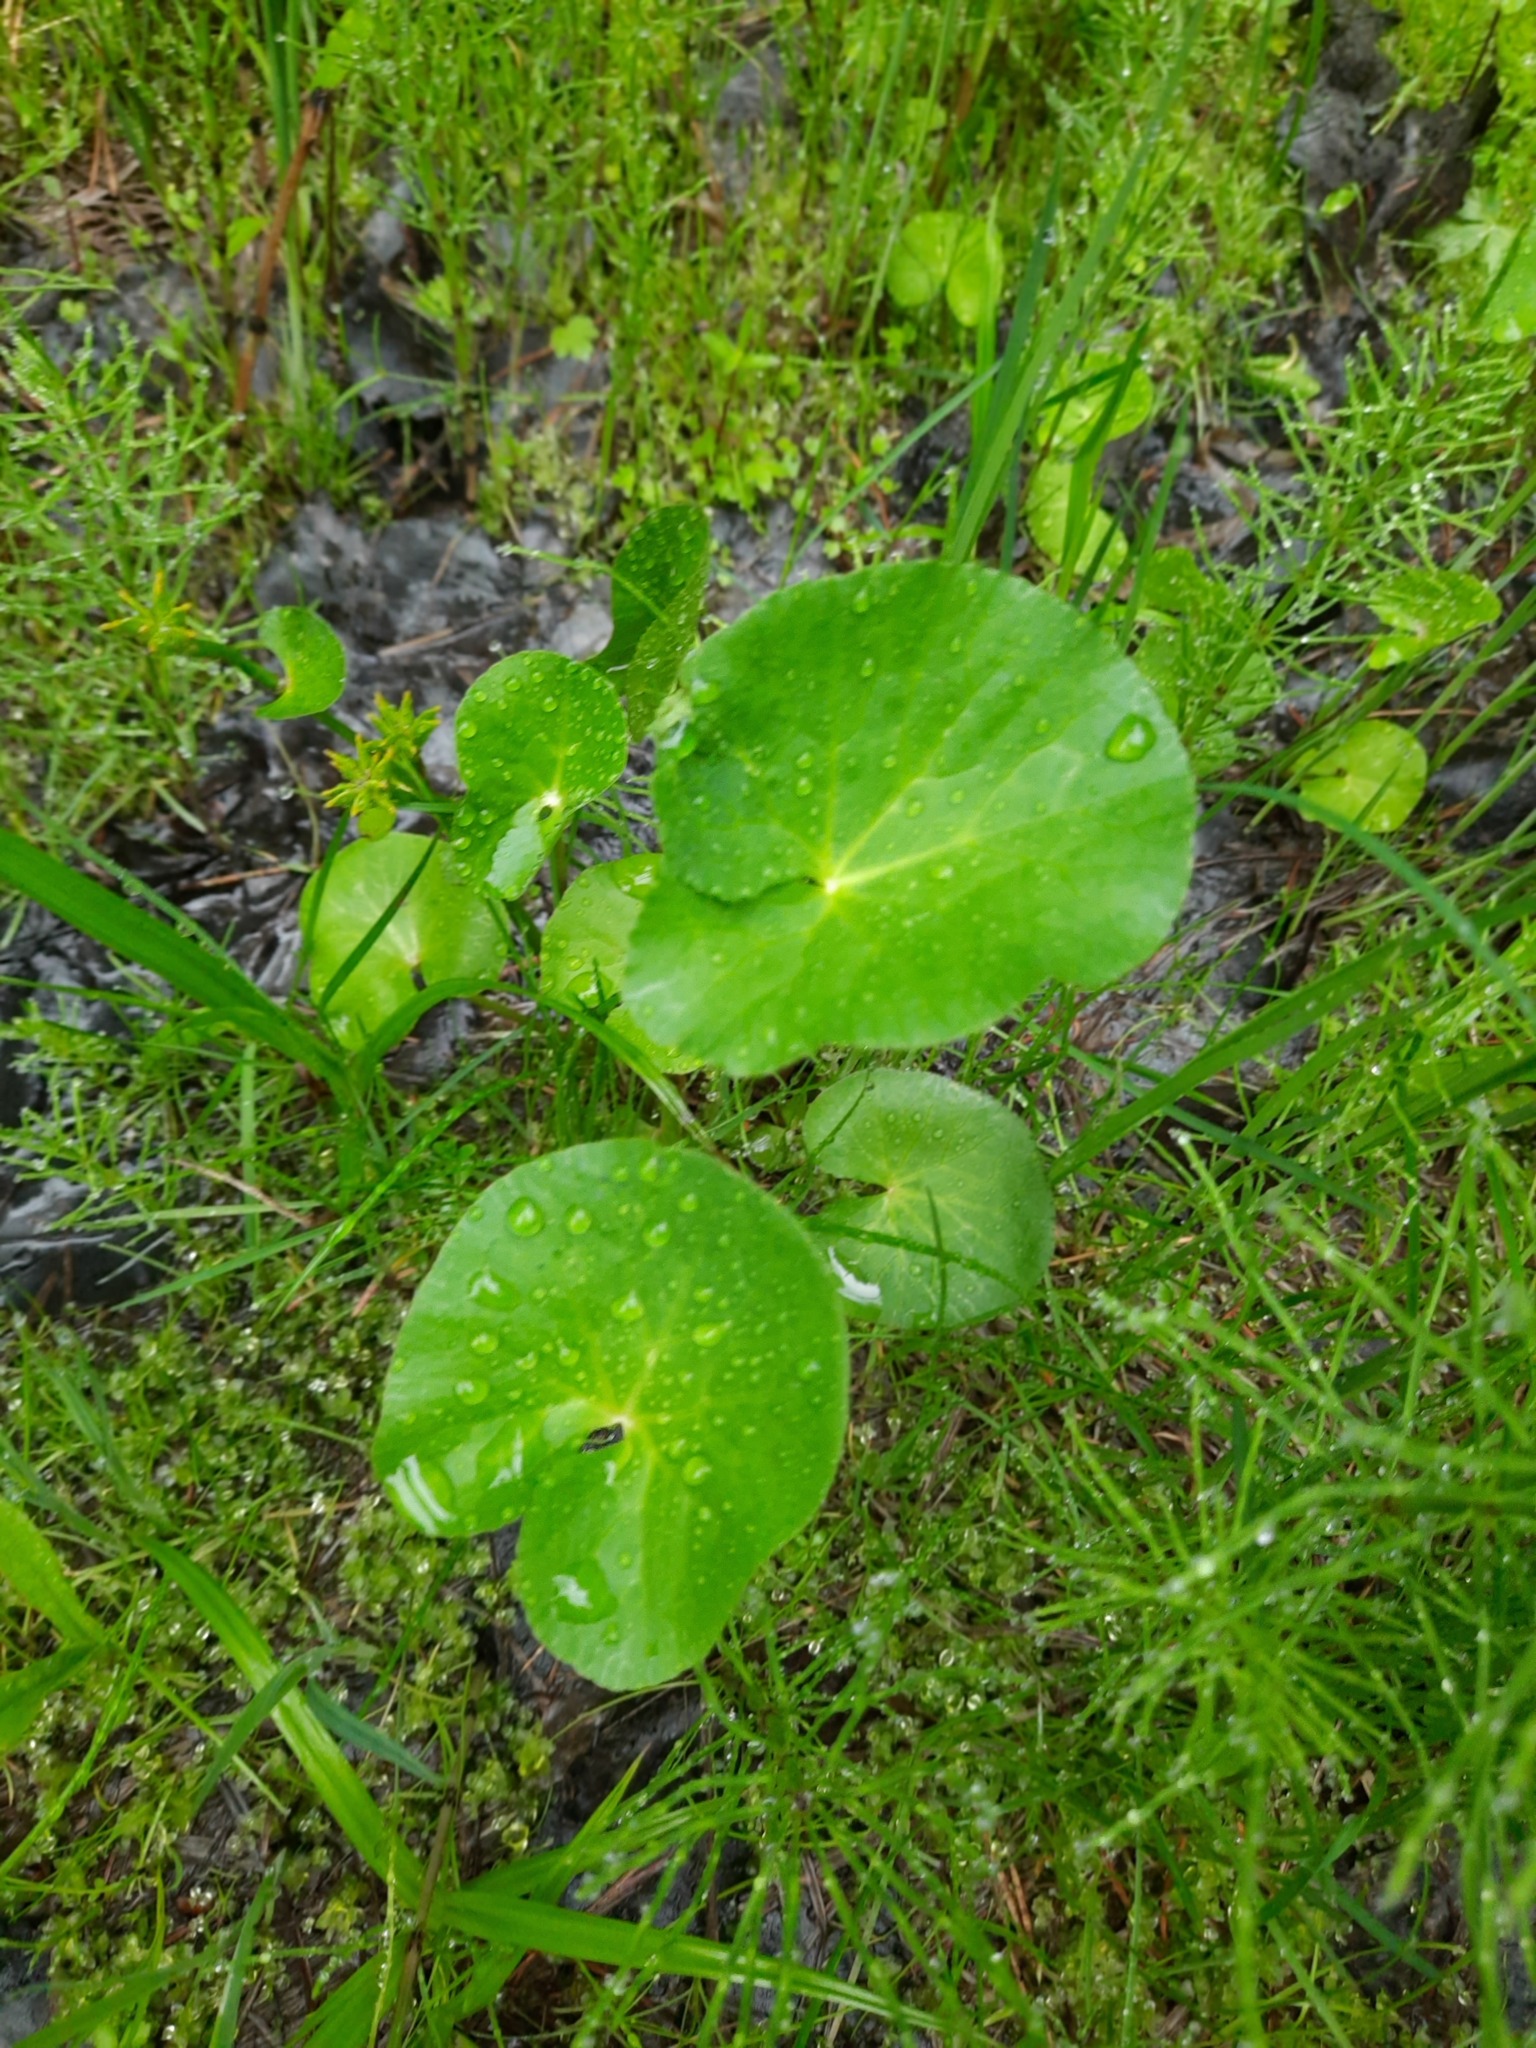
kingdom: Plantae
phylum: Tracheophyta
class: Magnoliopsida
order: Ranunculales
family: Ranunculaceae
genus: Caltha
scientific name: Caltha palustris
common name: Marsh marigold
